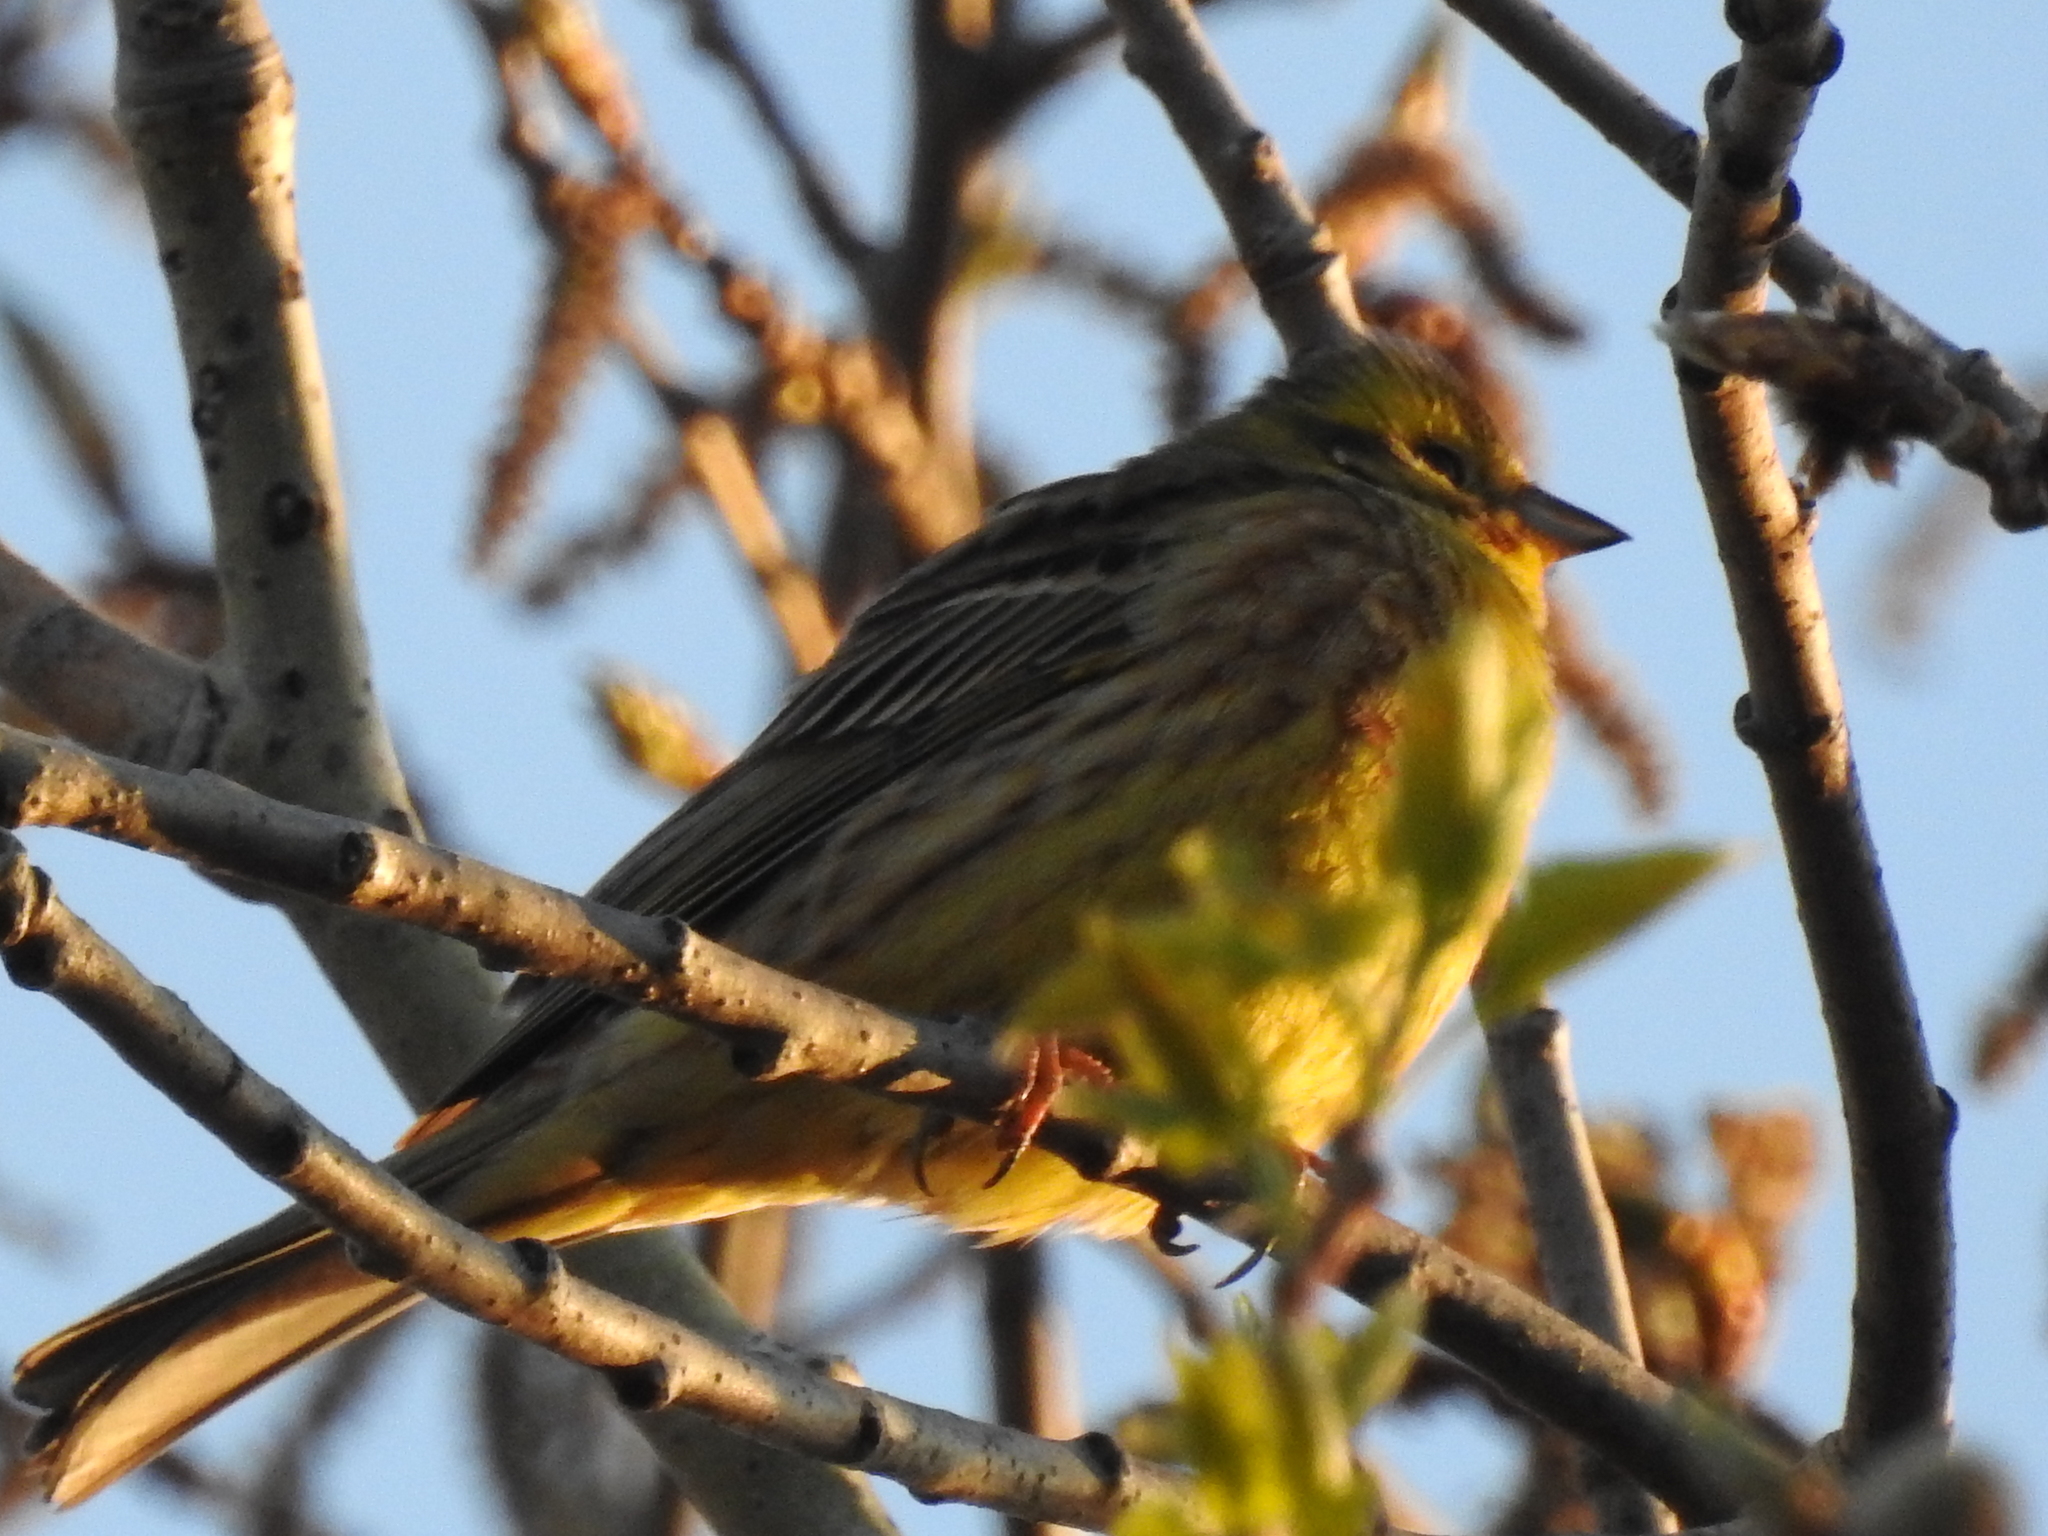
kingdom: Animalia
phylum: Chordata
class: Aves
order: Passeriformes
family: Emberizidae
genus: Emberiza
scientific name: Emberiza citrinella
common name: Yellowhammer
